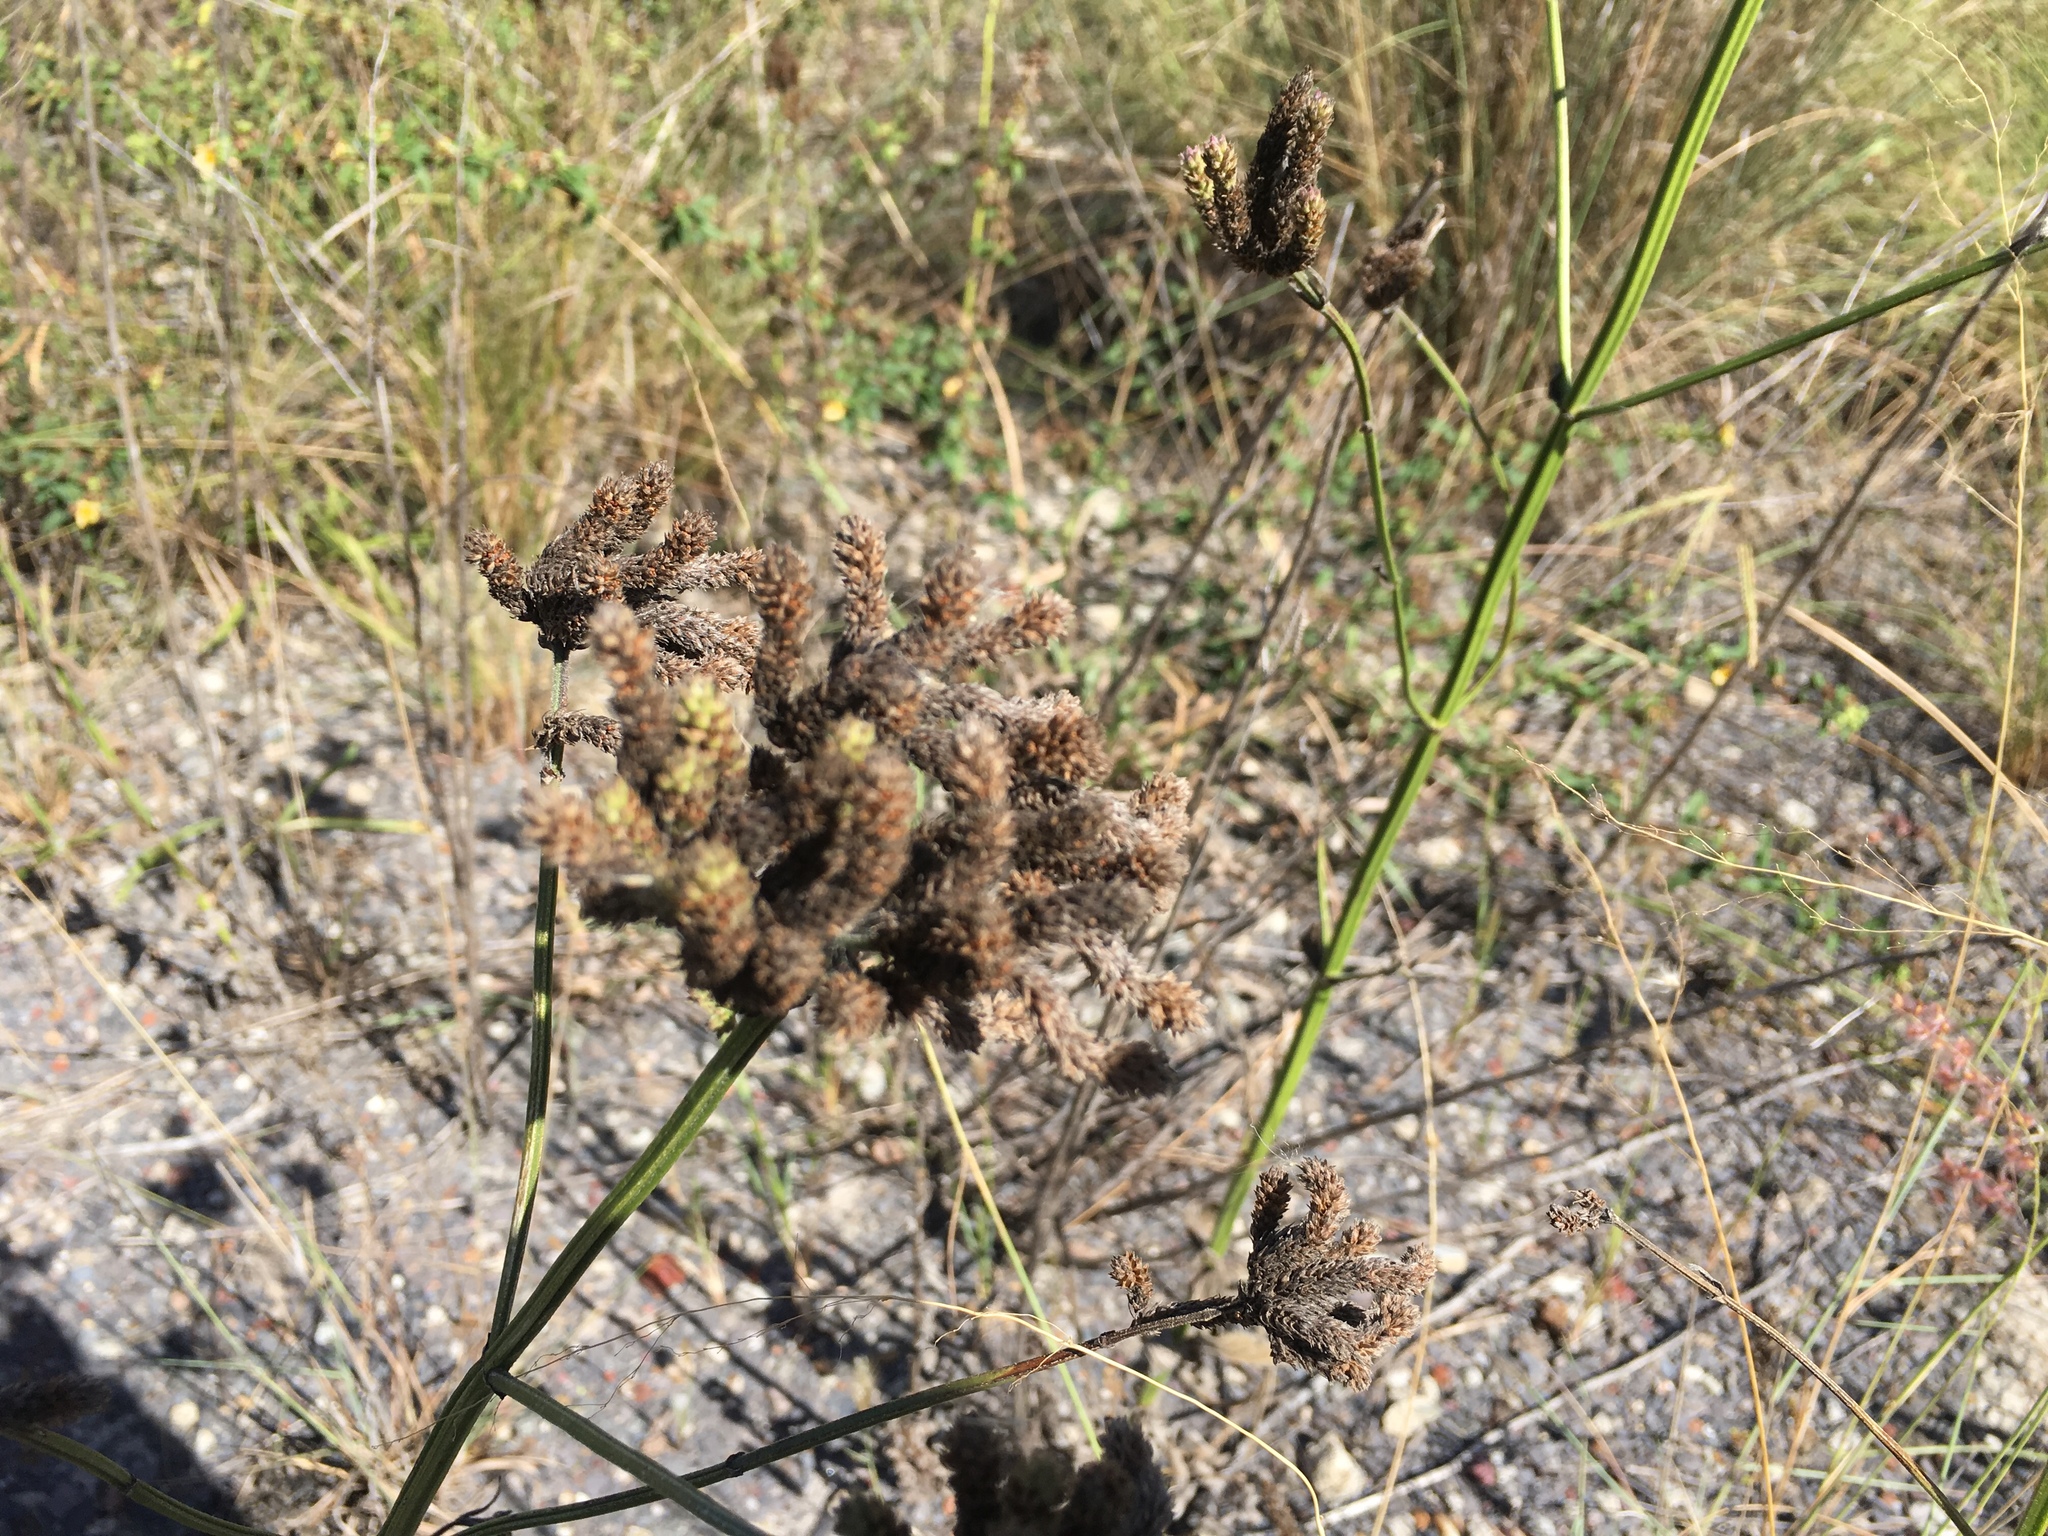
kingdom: Plantae
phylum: Tracheophyta
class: Magnoliopsida
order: Lamiales
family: Verbenaceae
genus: Verbena
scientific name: Verbena bonariensis
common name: Purpletop vervain
